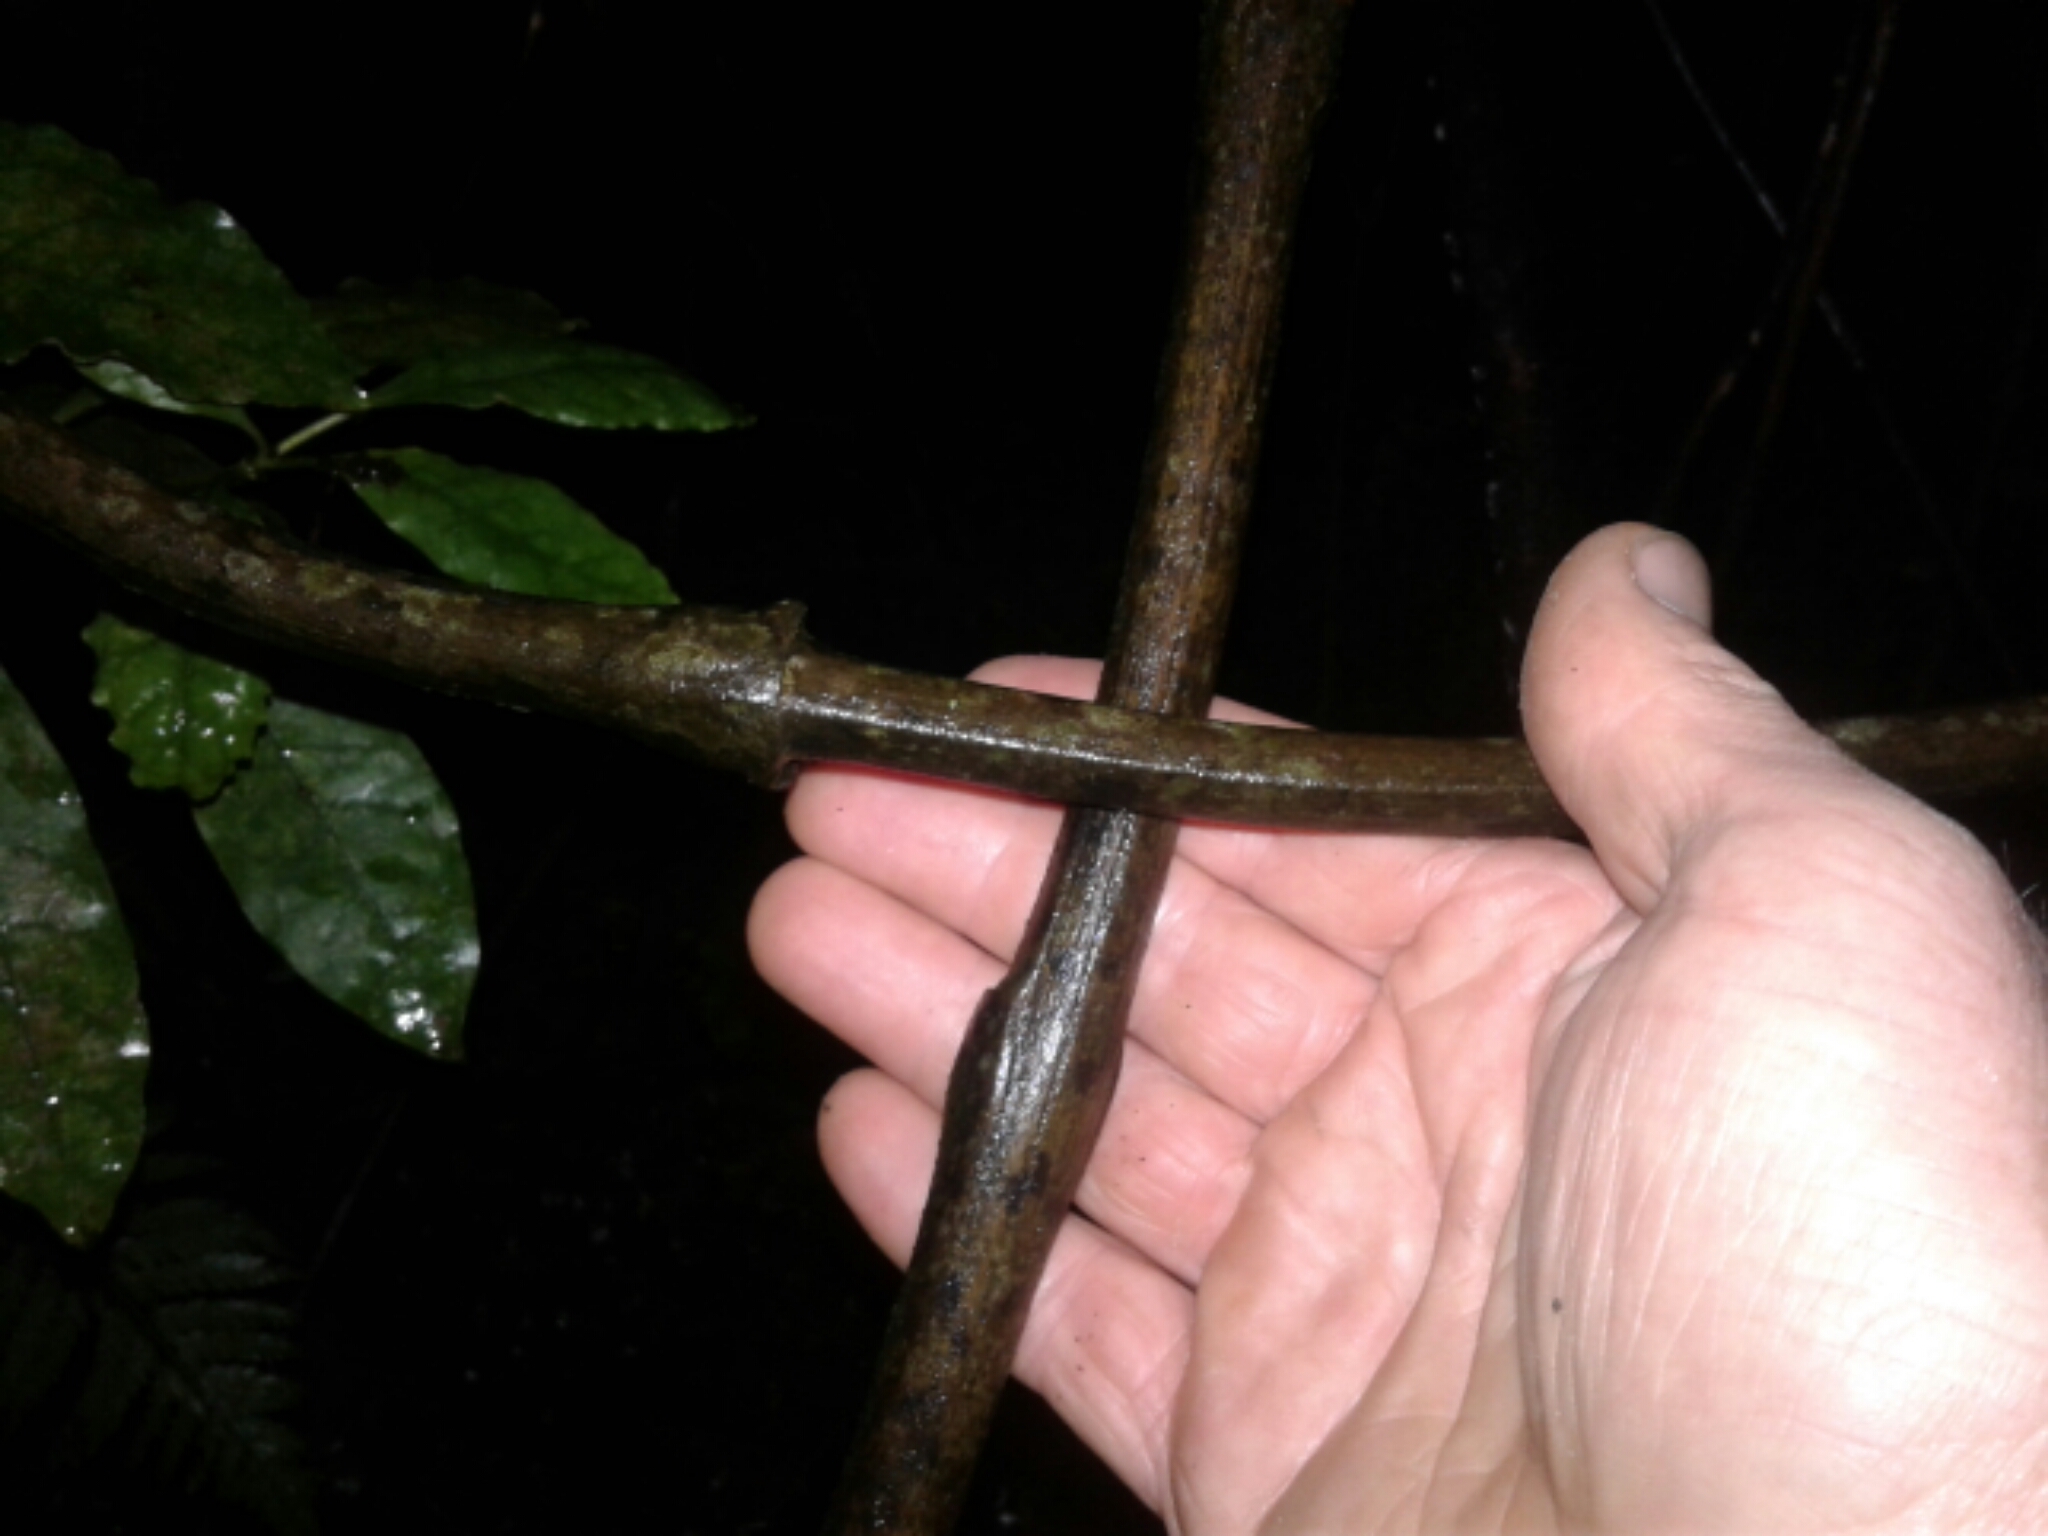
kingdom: Plantae
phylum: Tracheophyta
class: Liliopsida
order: Liliales
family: Ripogonaceae
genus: Ripogonum
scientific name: Ripogonum scandens
